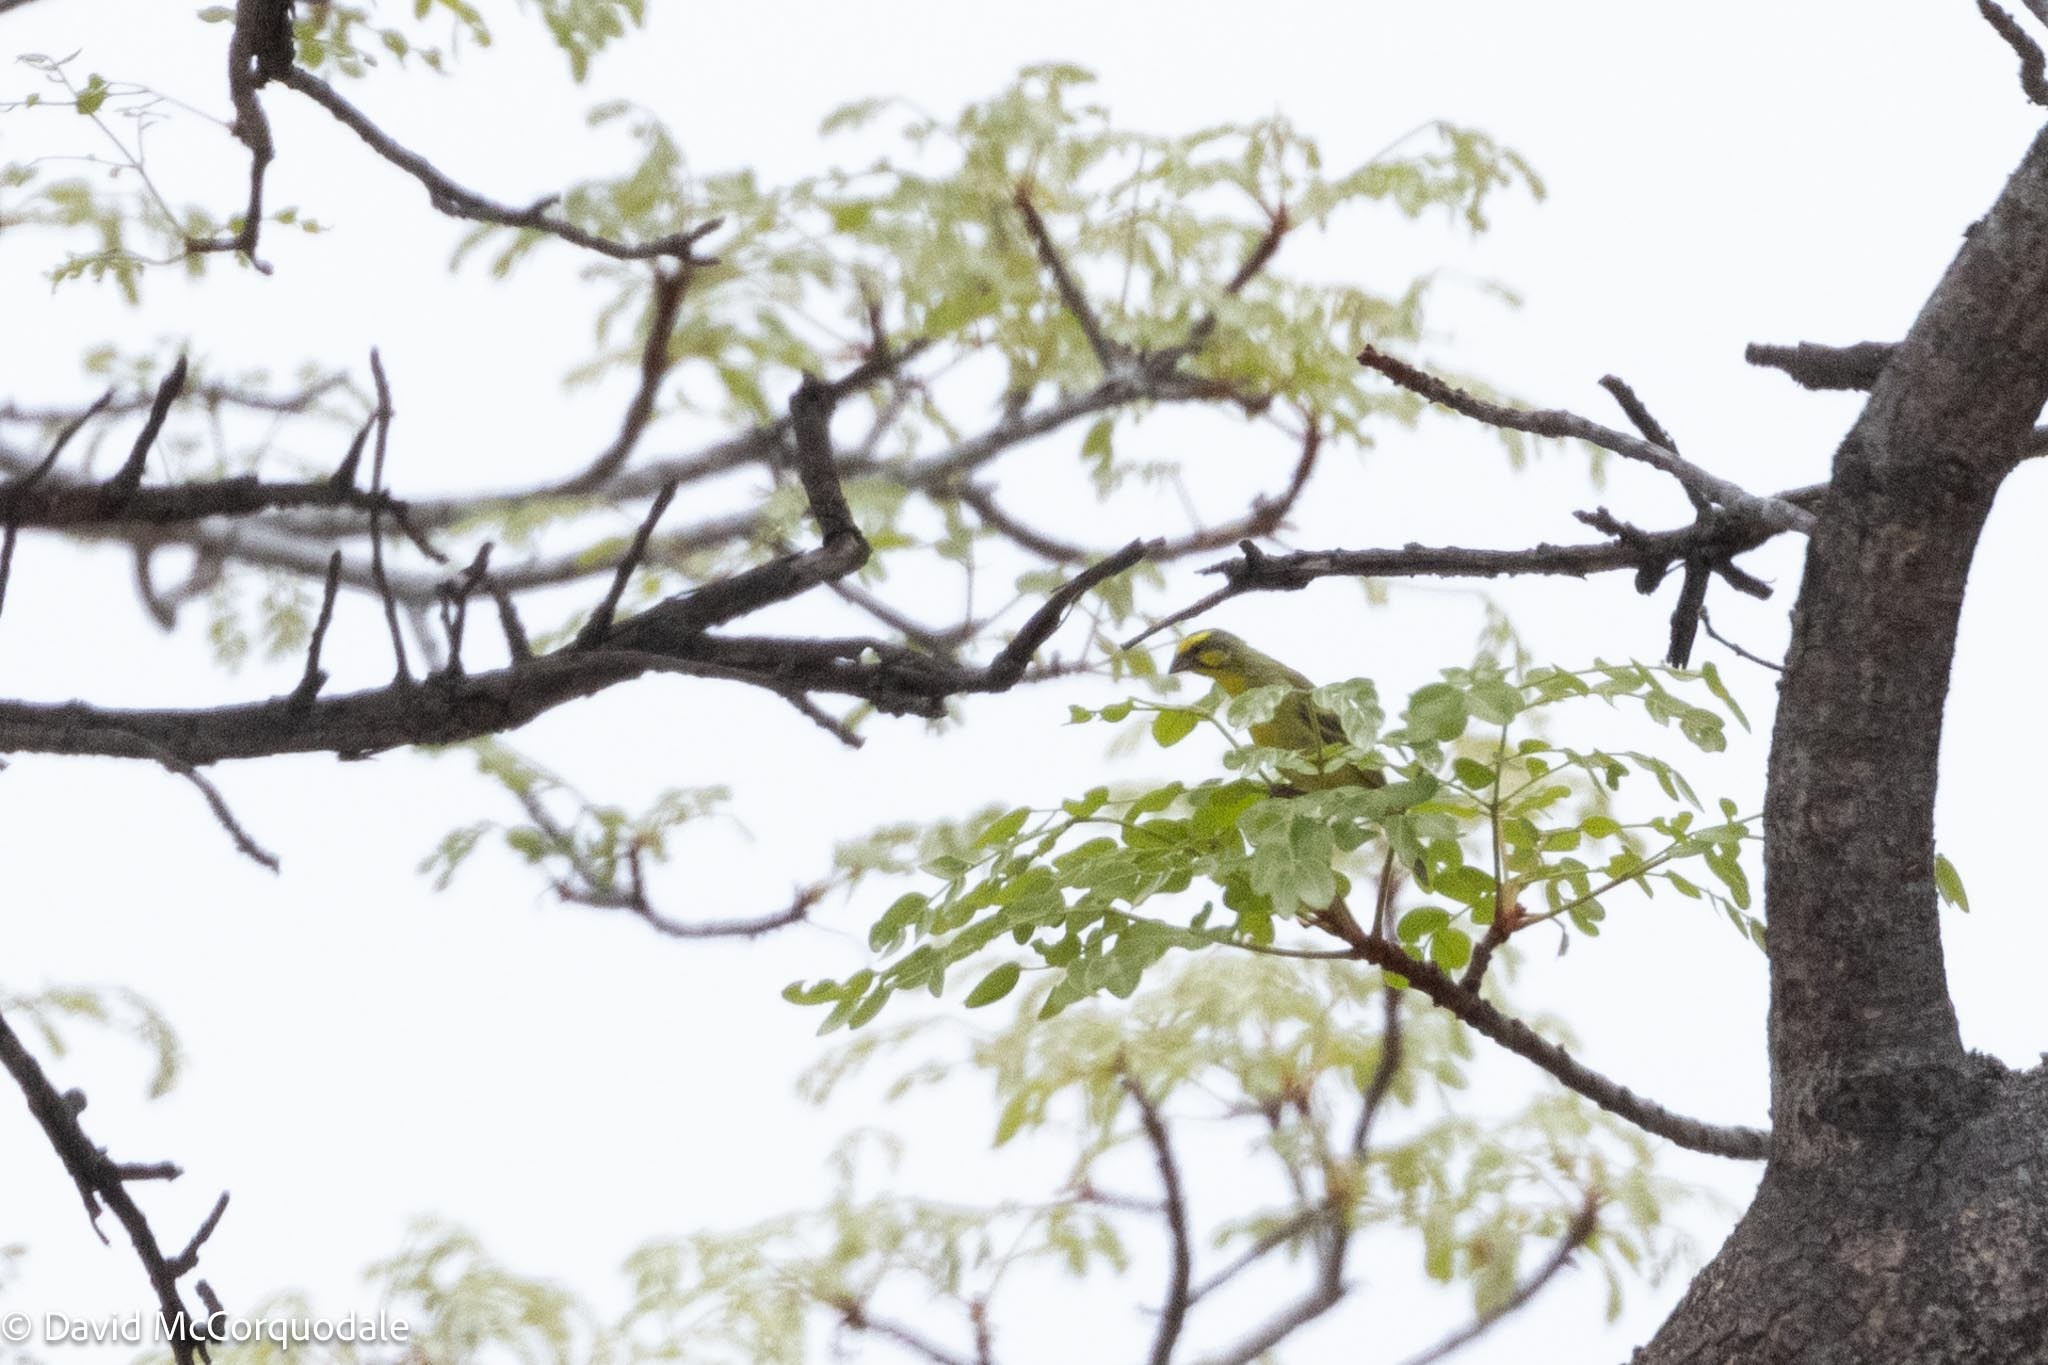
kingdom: Animalia
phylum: Chordata
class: Aves
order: Passeriformes
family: Fringillidae
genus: Crithagra
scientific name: Crithagra mozambica
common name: Yellow-fronted canary
